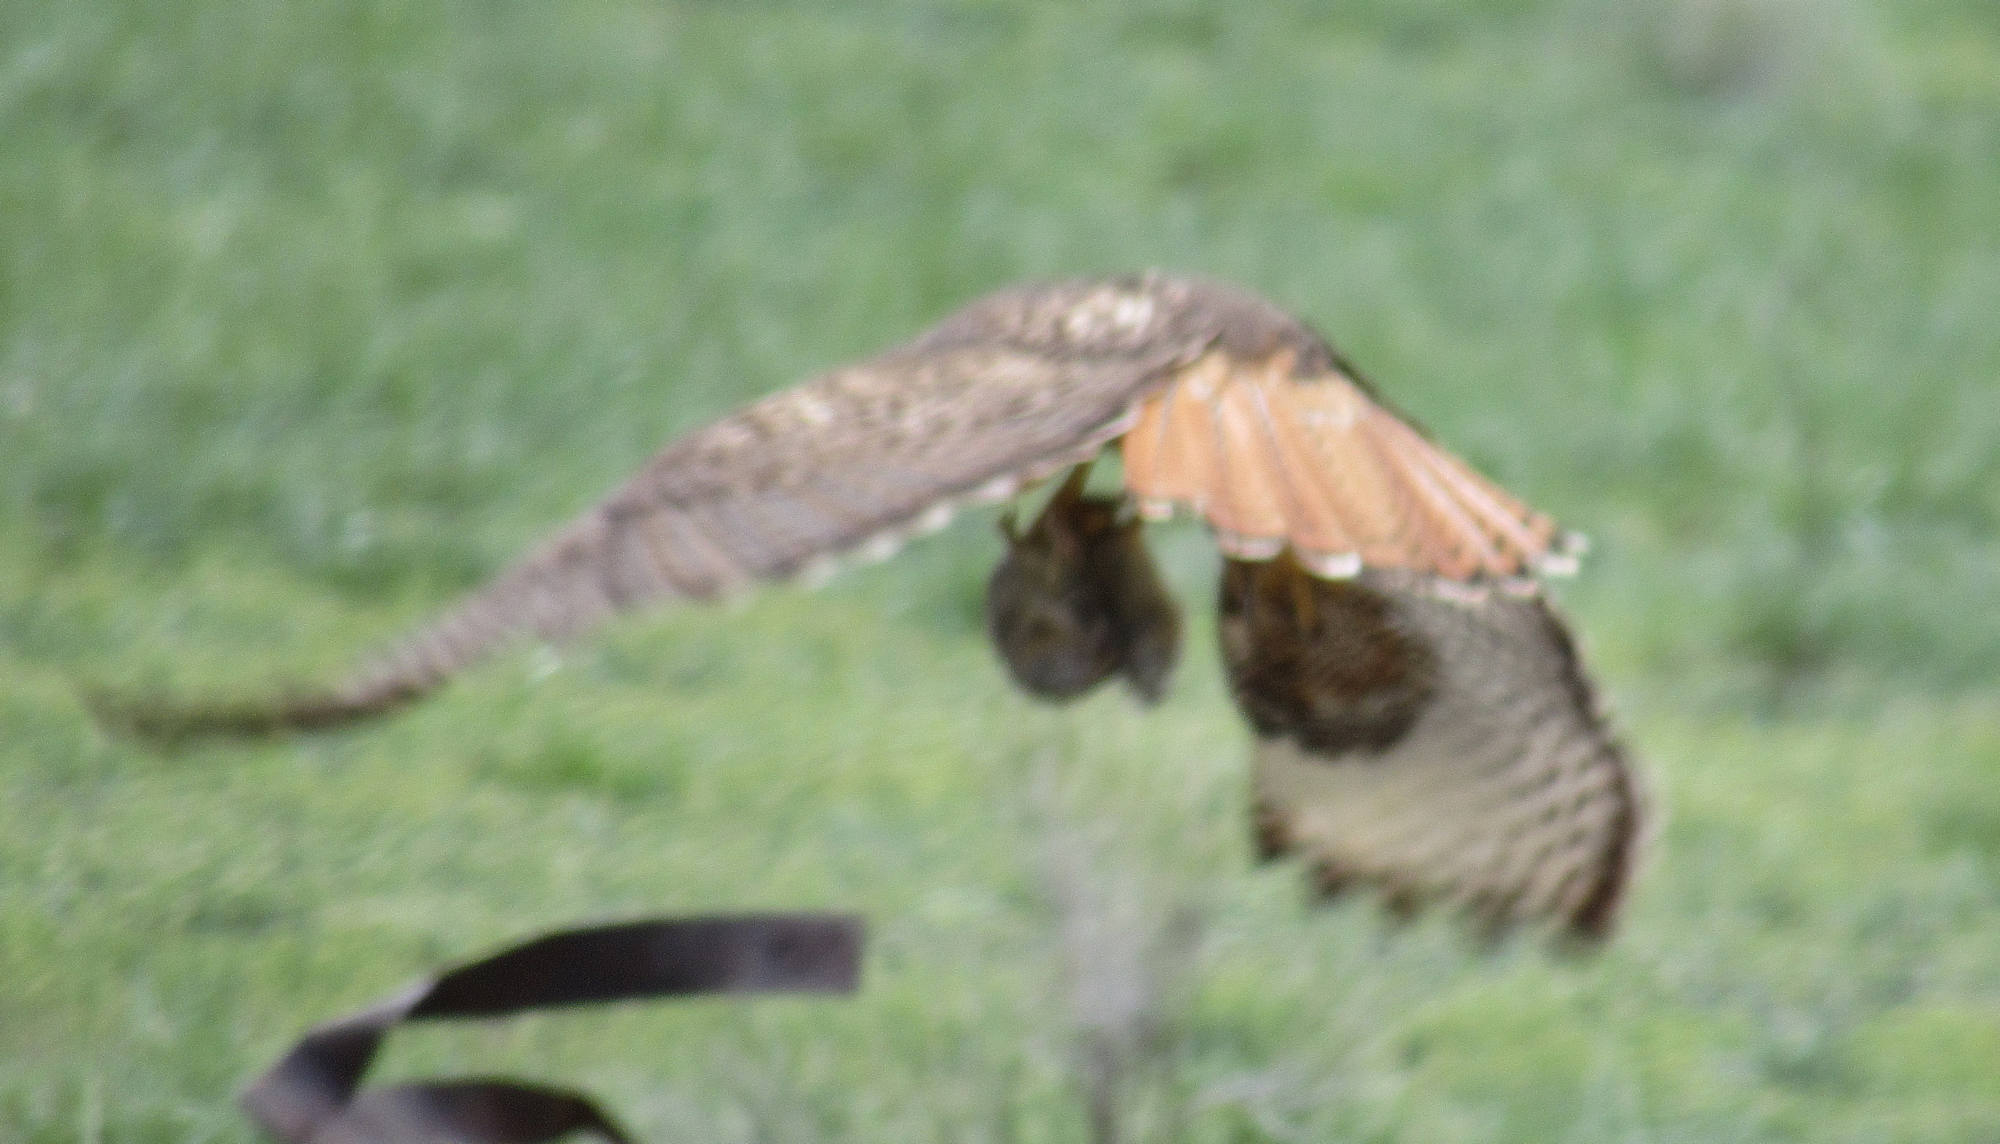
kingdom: Animalia
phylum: Chordata
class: Aves
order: Accipitriformes
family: Accipitridae
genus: Buteo
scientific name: Buteo jamaicensis
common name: Red-tailed hawk
